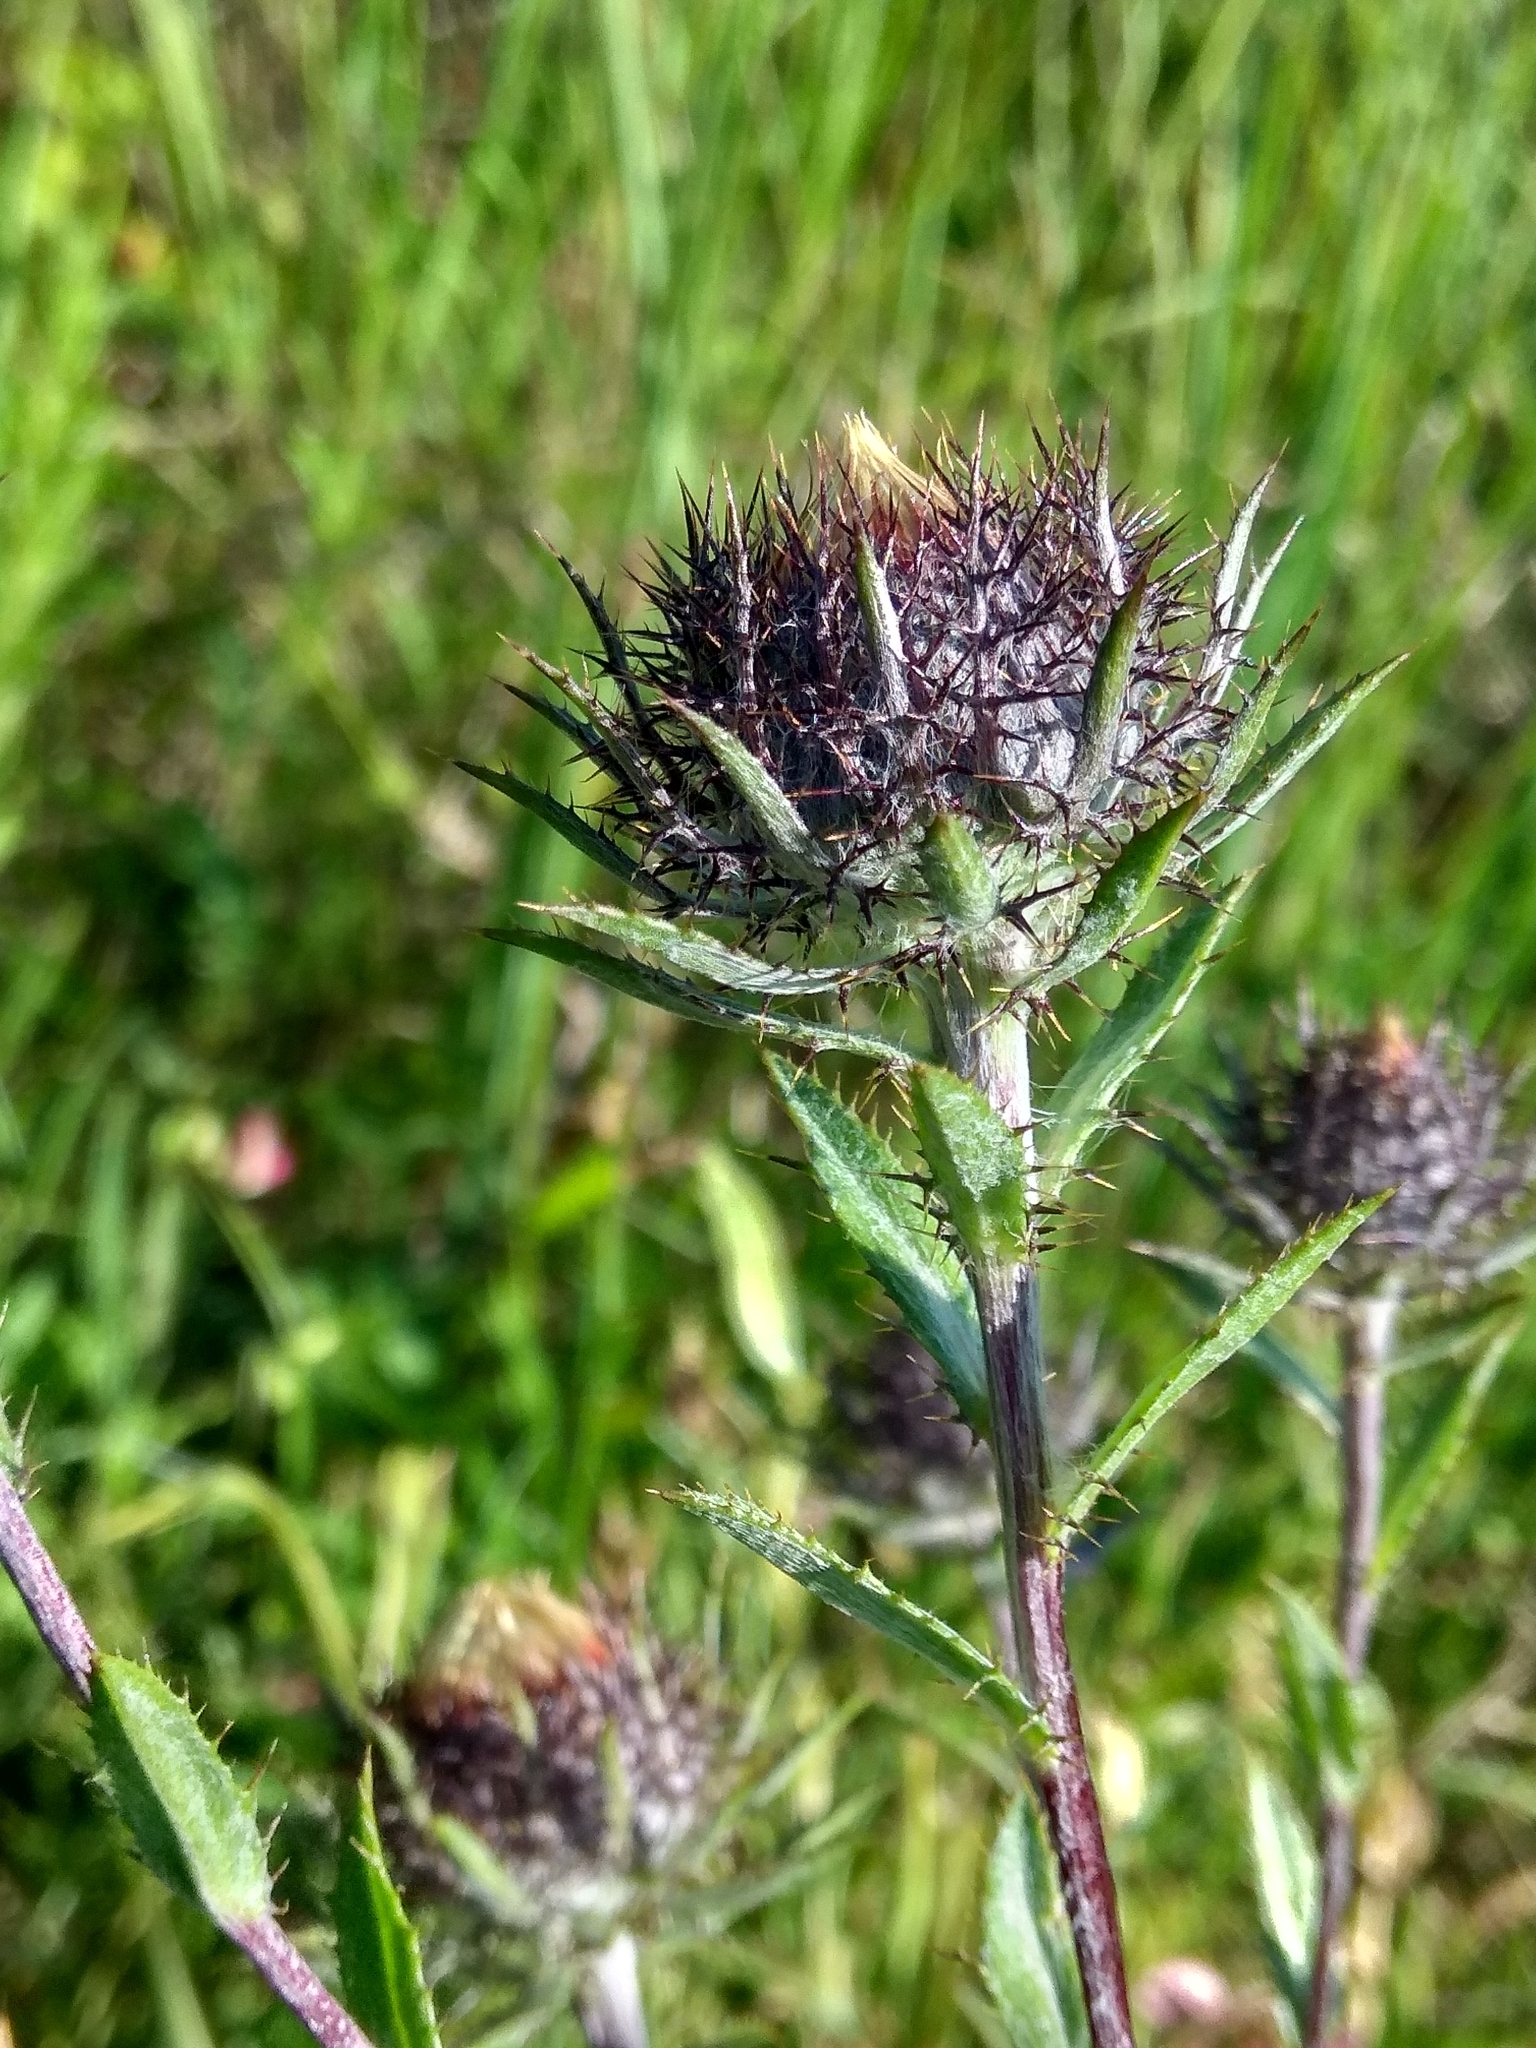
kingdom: Plantae
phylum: Tracheophyta
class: Magnoliopsida
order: Asterales
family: Asteraceae
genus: Carlina
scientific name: Carlina biebersteinii
